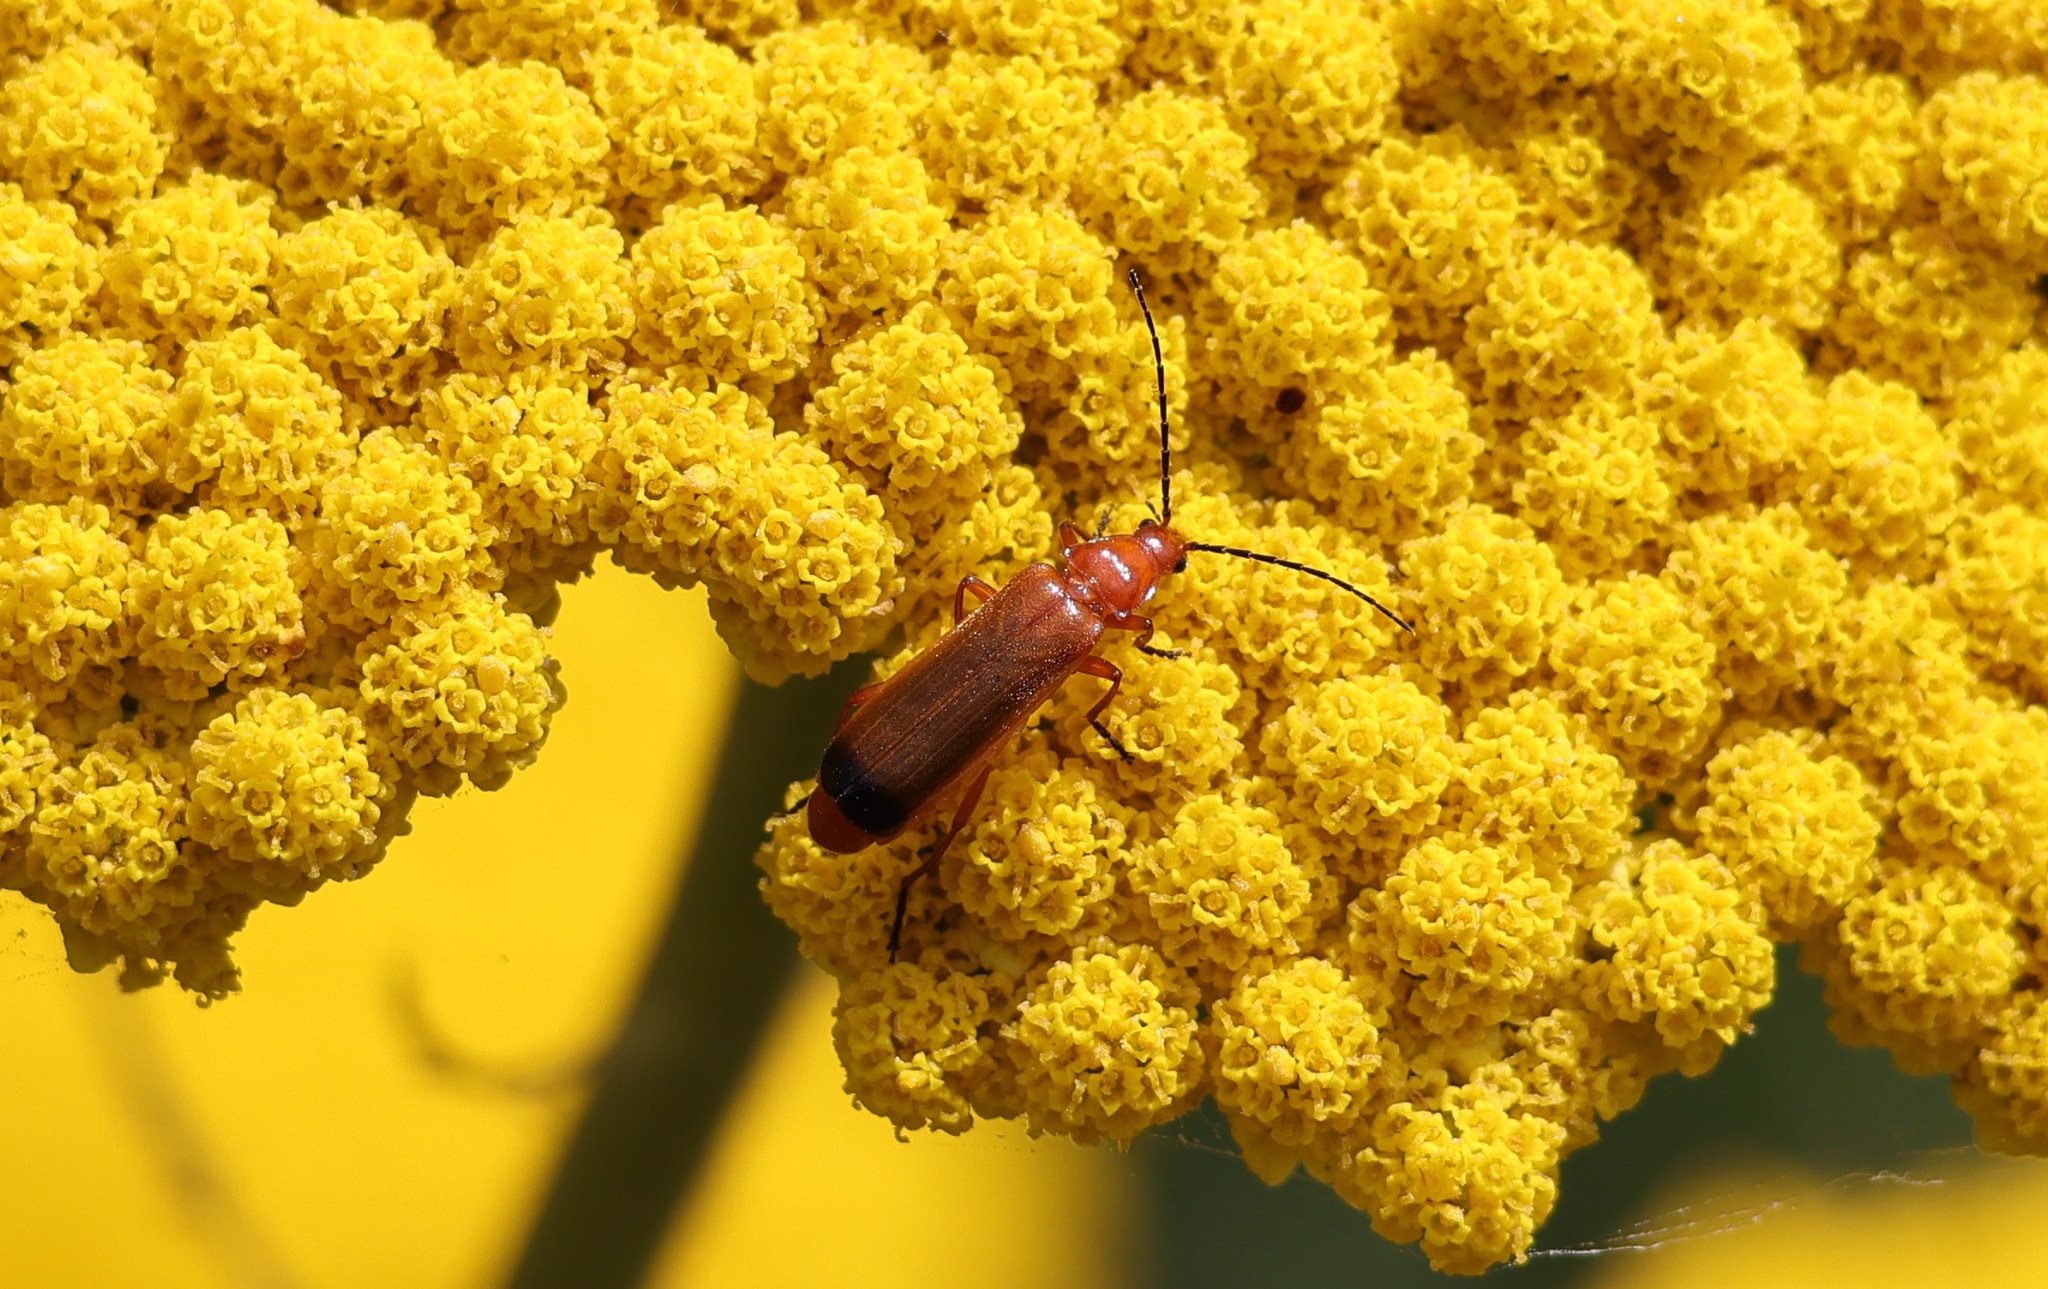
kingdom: Animalia
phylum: Arthropoda
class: Insecta
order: Coleoptera
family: Cantharidae
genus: Rhagonycha
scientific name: Rhagonycha fulva
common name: Common red soldier beetle
